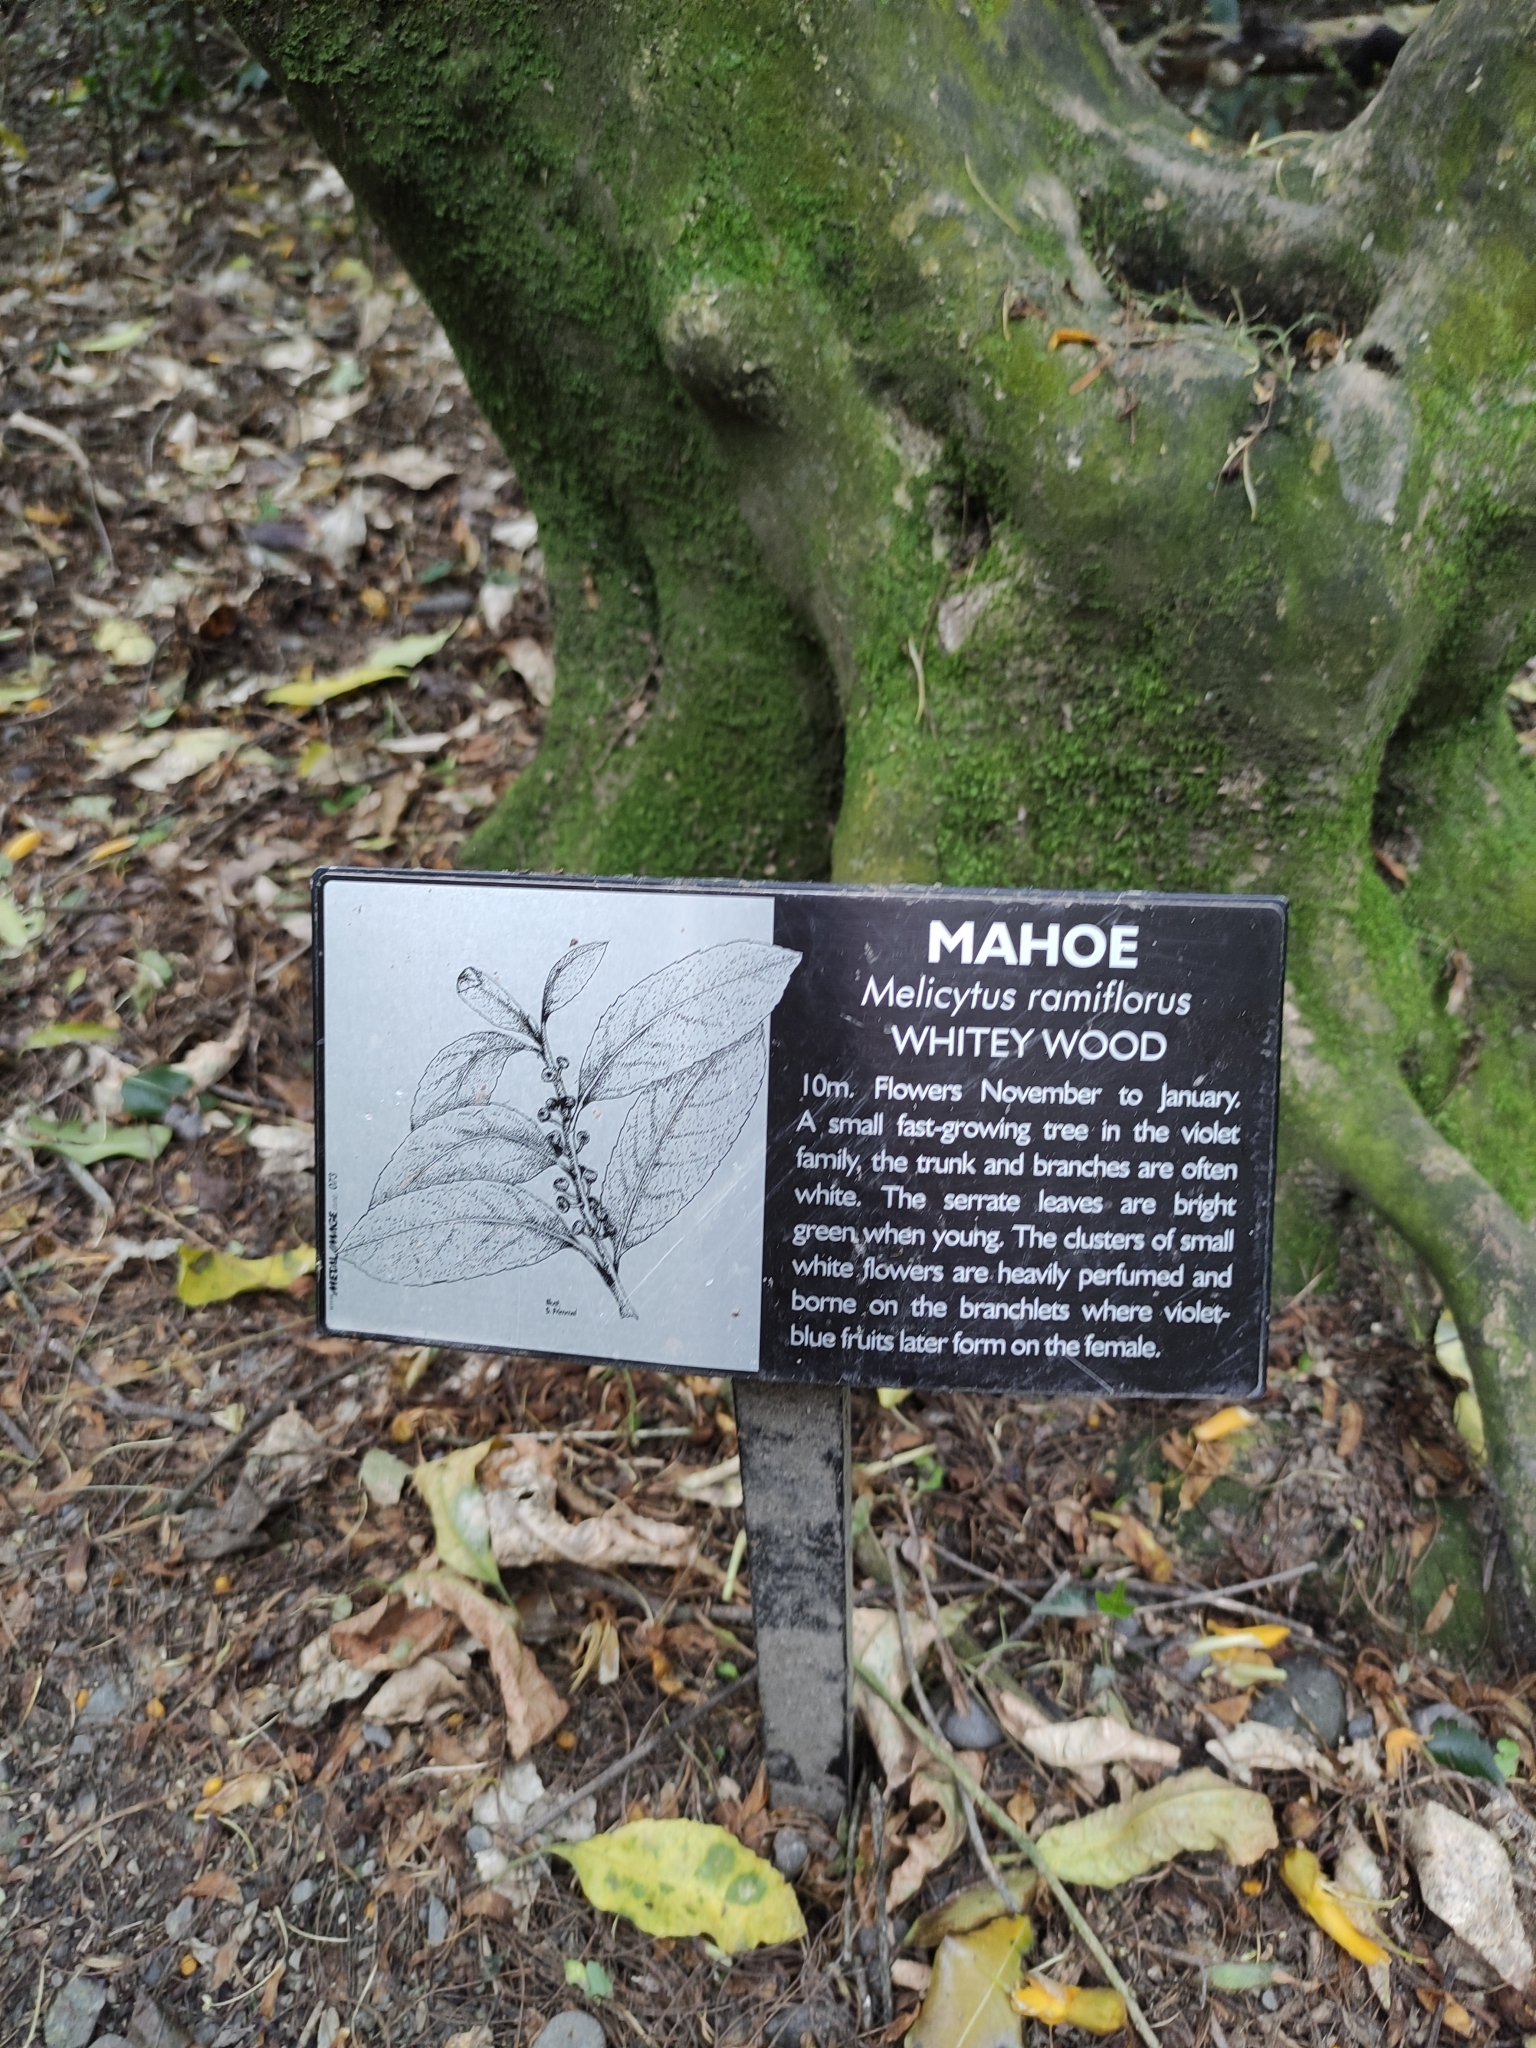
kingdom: Plantae
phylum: Tracheophyta
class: Magnoliopsida
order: Malpighiales
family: Violaceae
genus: Melicytus
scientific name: Melicytus ramiflorus
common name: Mahoe
